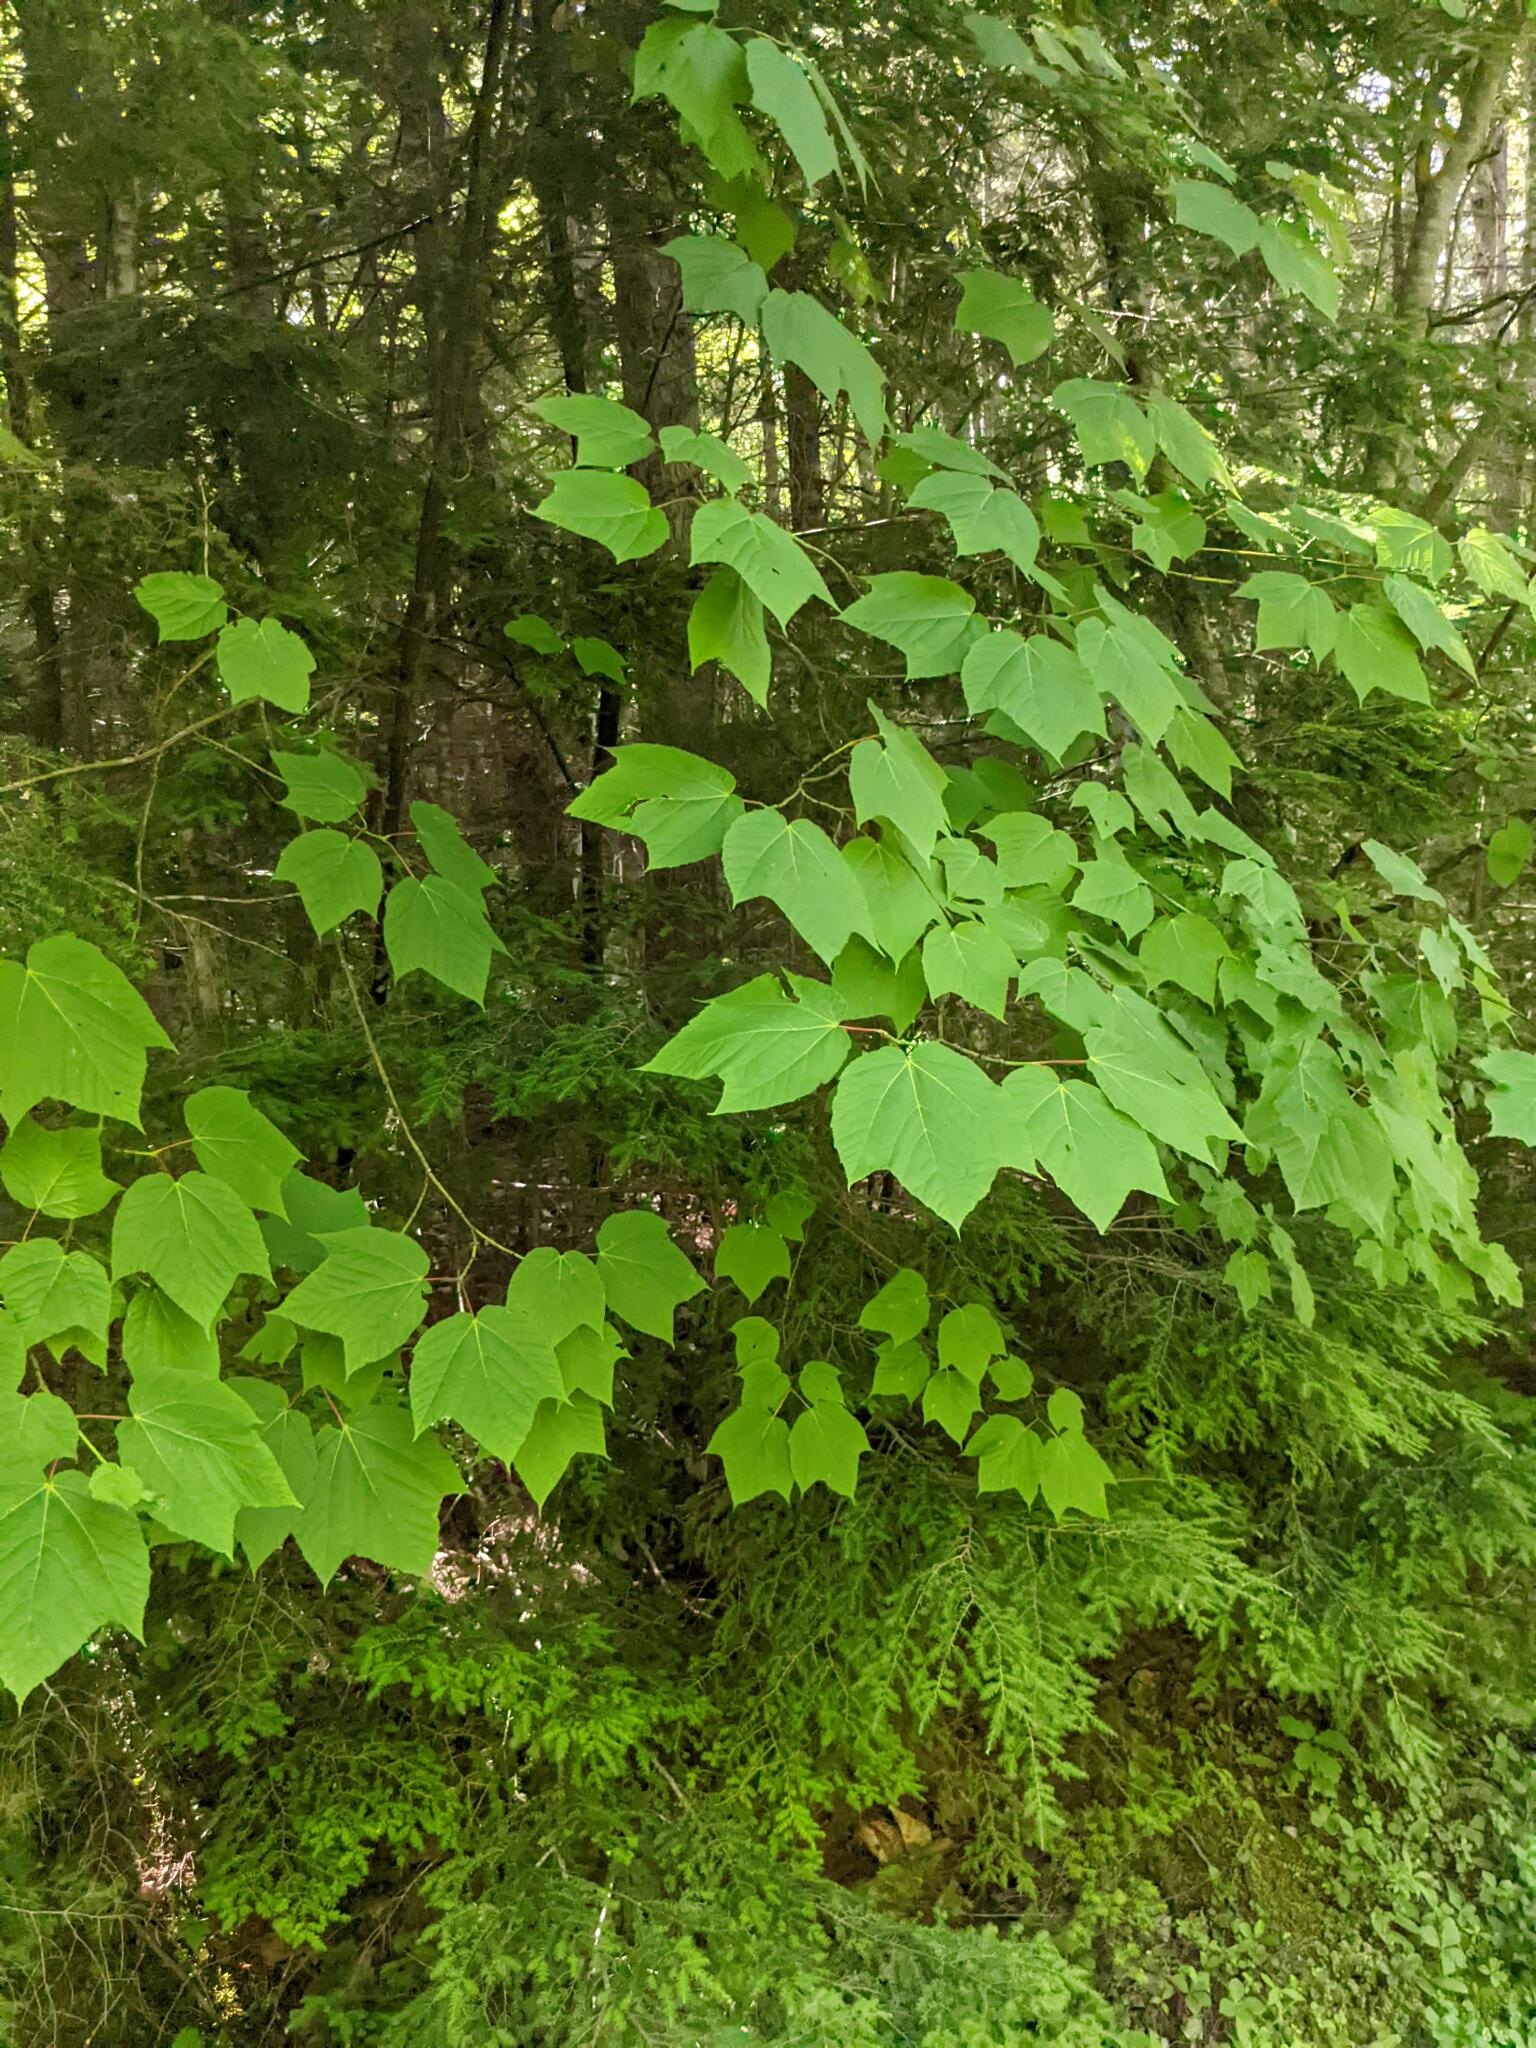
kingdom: Plantae
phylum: Tracheophyta
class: Magnoliopsida
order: Sapindales
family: Sapindaceae
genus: Acer
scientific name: Acer pensylvanicum
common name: Moosewood
